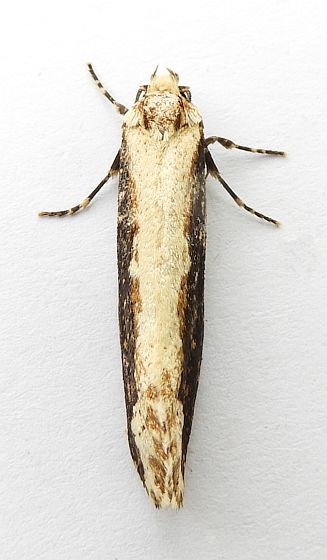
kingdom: Animalia
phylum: Arthropoda
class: Insecta
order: Lepidoptera
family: Tineidae
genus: Scardia
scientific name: Scardia amurensis
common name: Tineid moth
